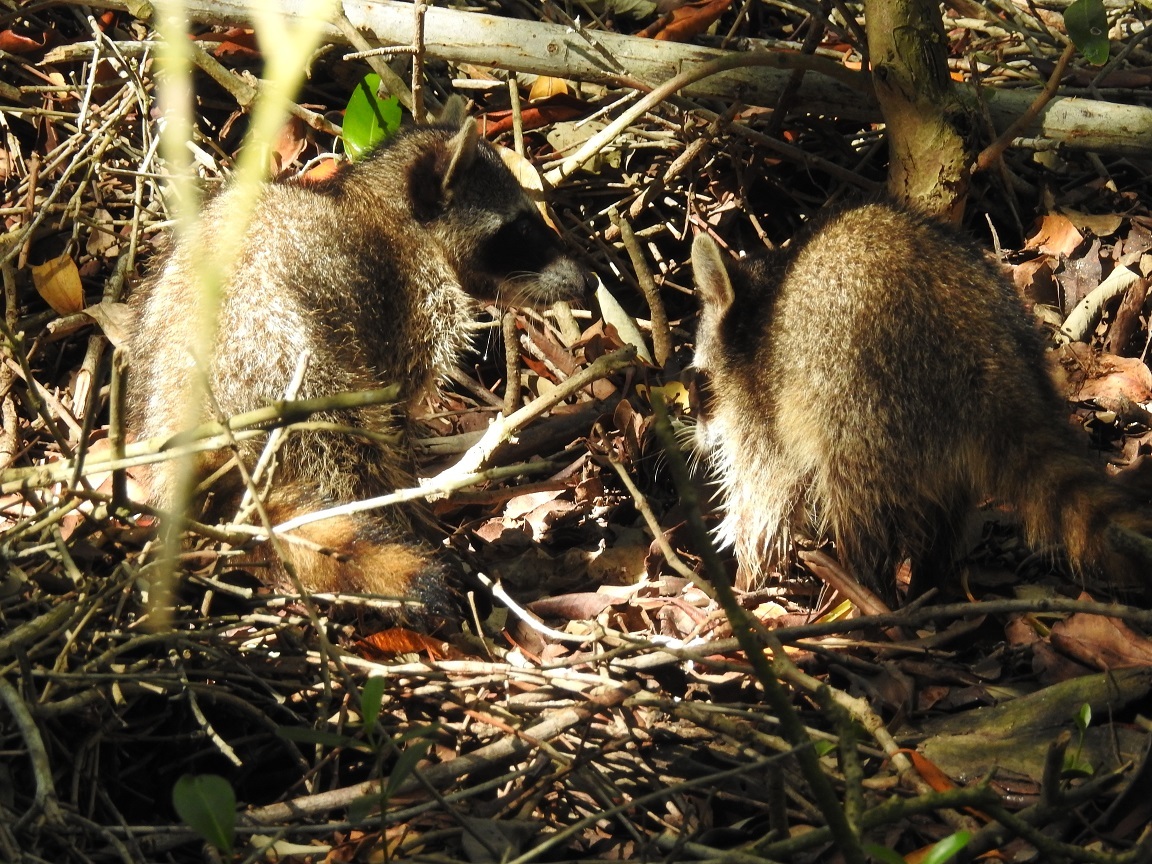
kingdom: Animalia
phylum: Chordata
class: Mammalia
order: Carnivora
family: Procyonidae
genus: Procyon
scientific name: Procyon lotor
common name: Raccoon
